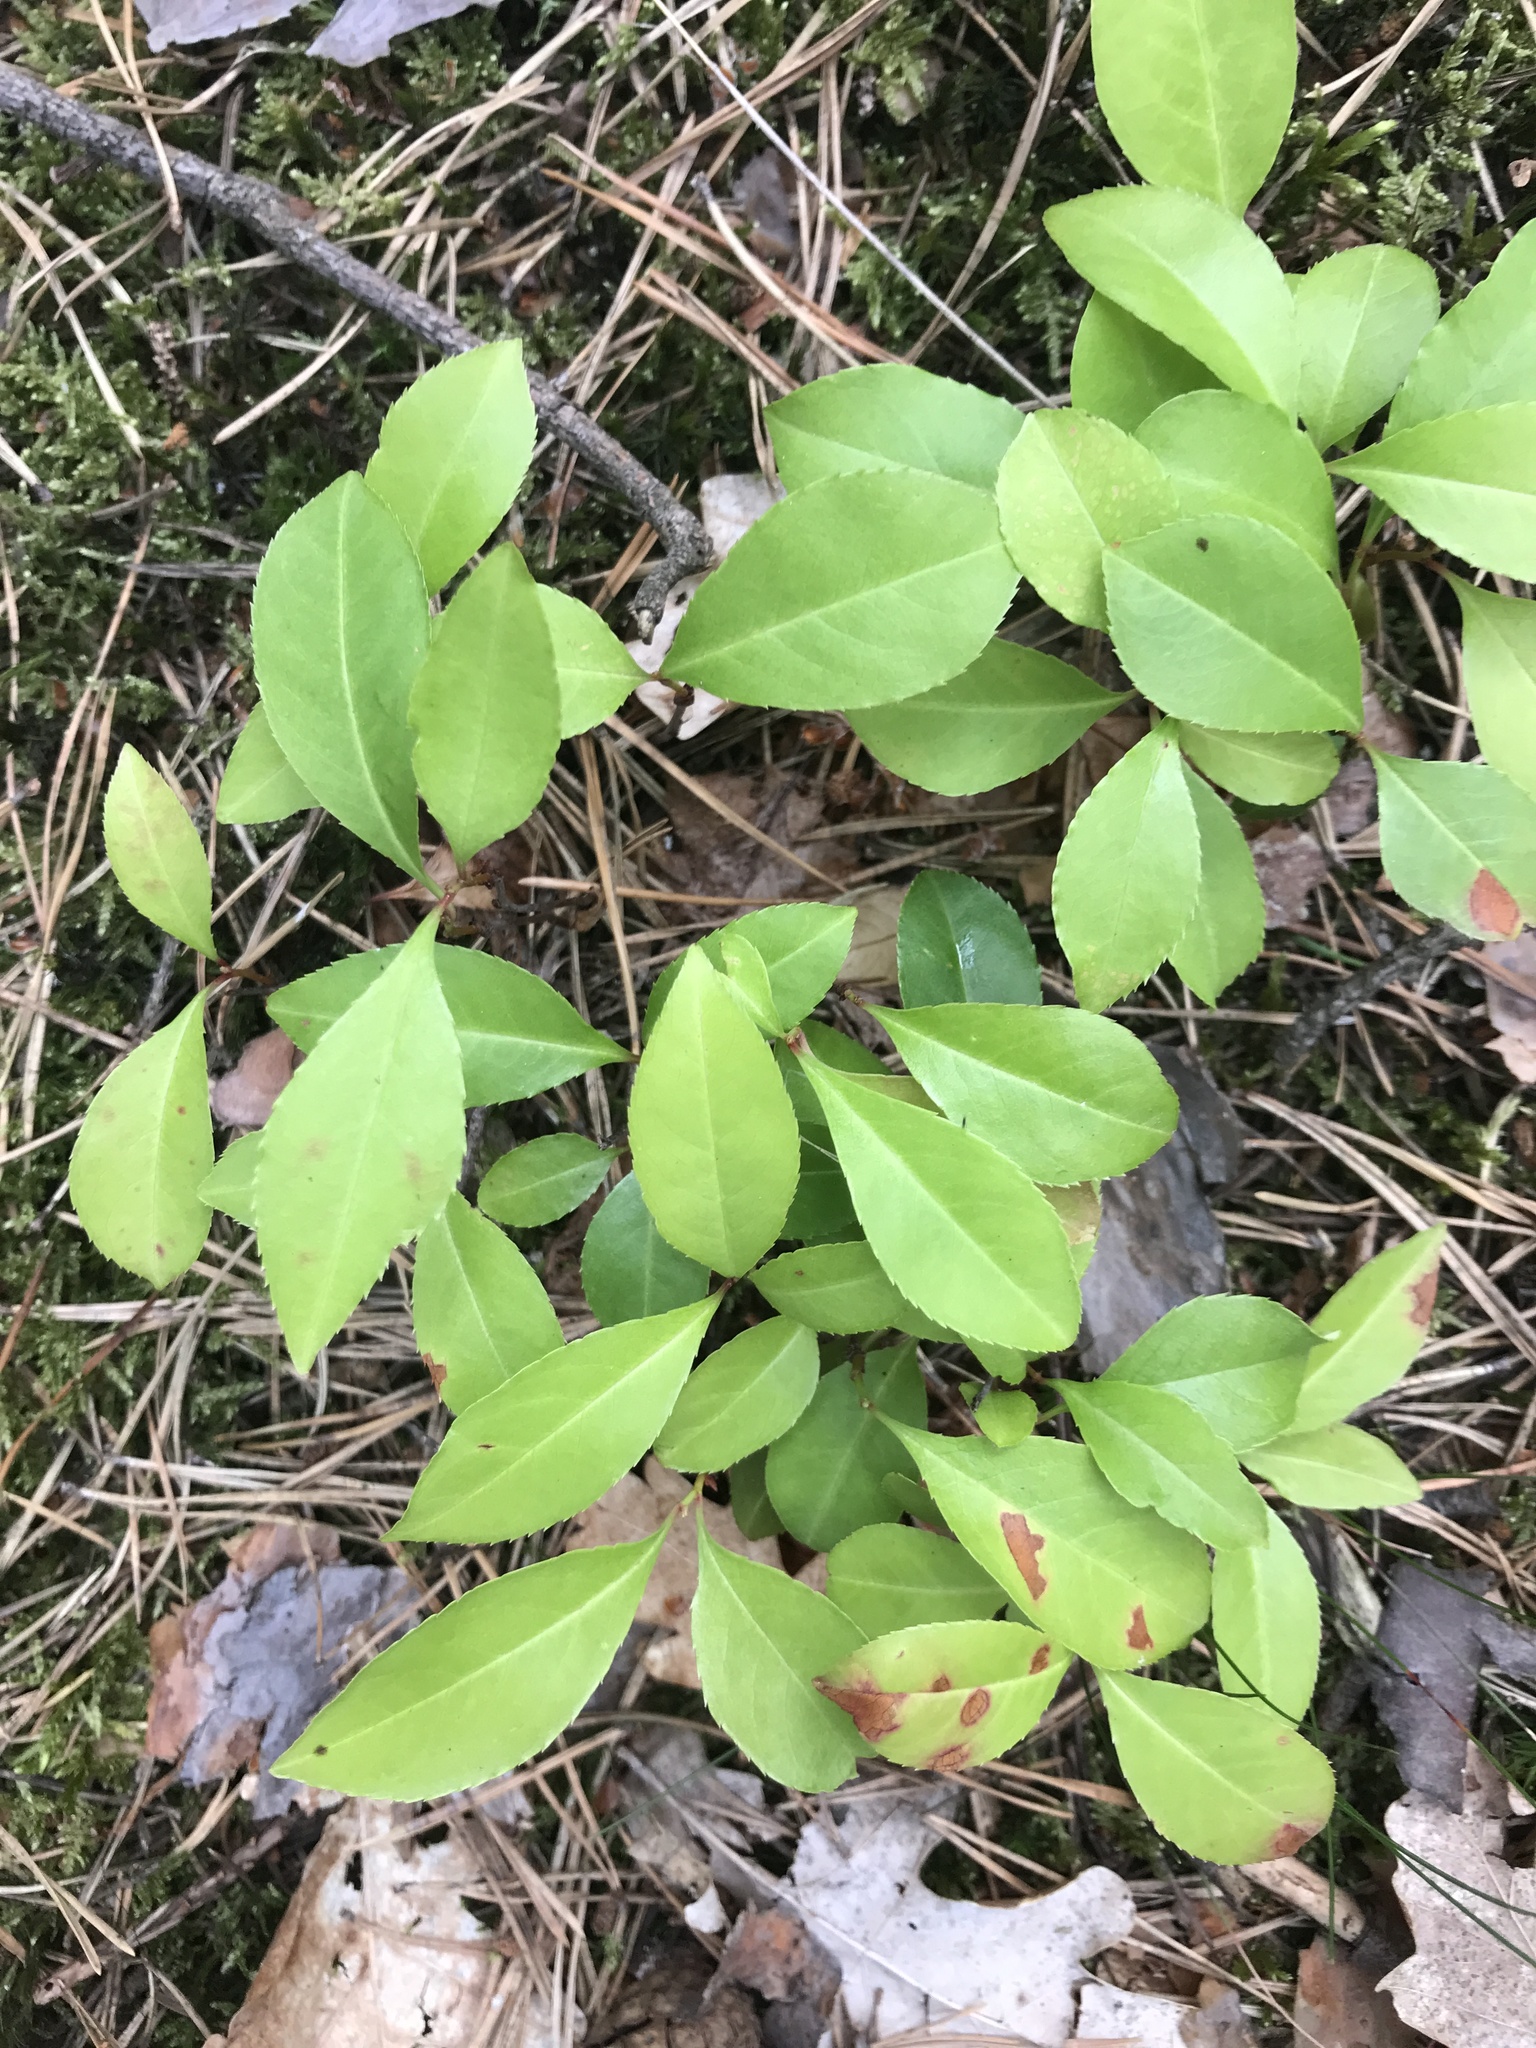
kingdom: Plantae
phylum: Tracheophyta
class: Magnoliopsida
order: Rosales
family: Rosaceae
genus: Prunus
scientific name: Prunus serotina
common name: Black cherry
